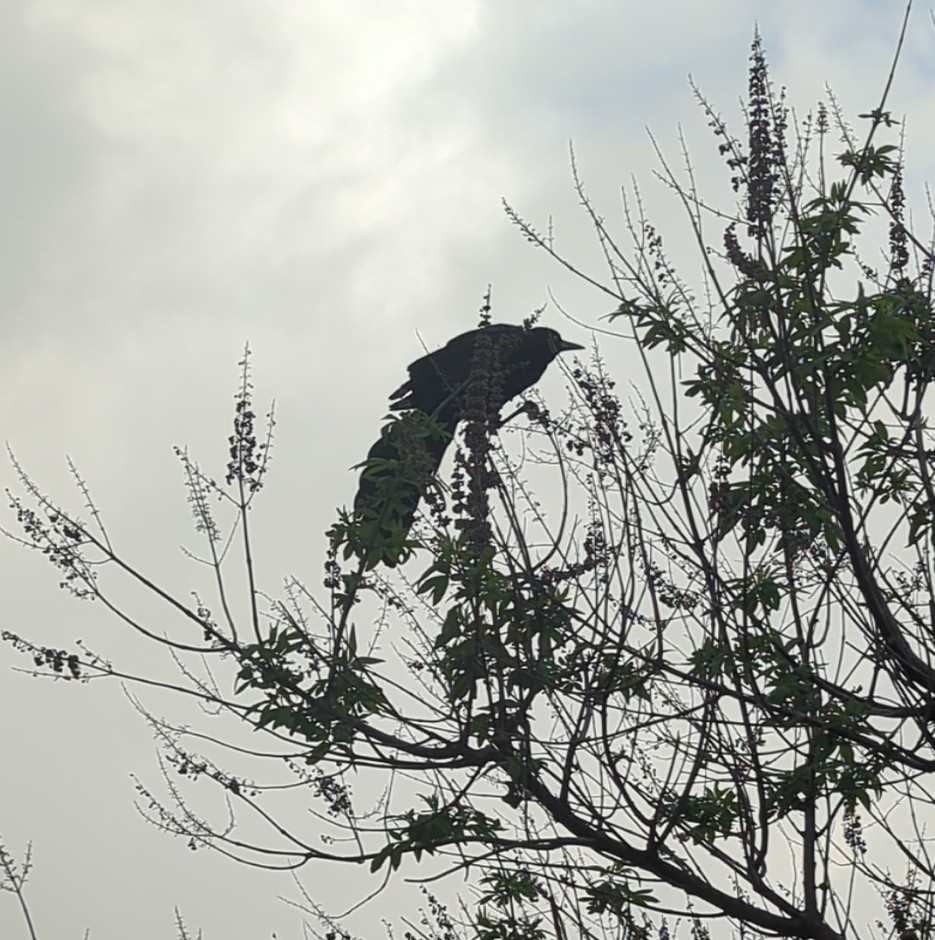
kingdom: Animalia
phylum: Chordata
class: Aves
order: Passeriformes
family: Icteridae
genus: Quiscalus
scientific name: Quiscalus mexicanus
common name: Great-tailed grackle
